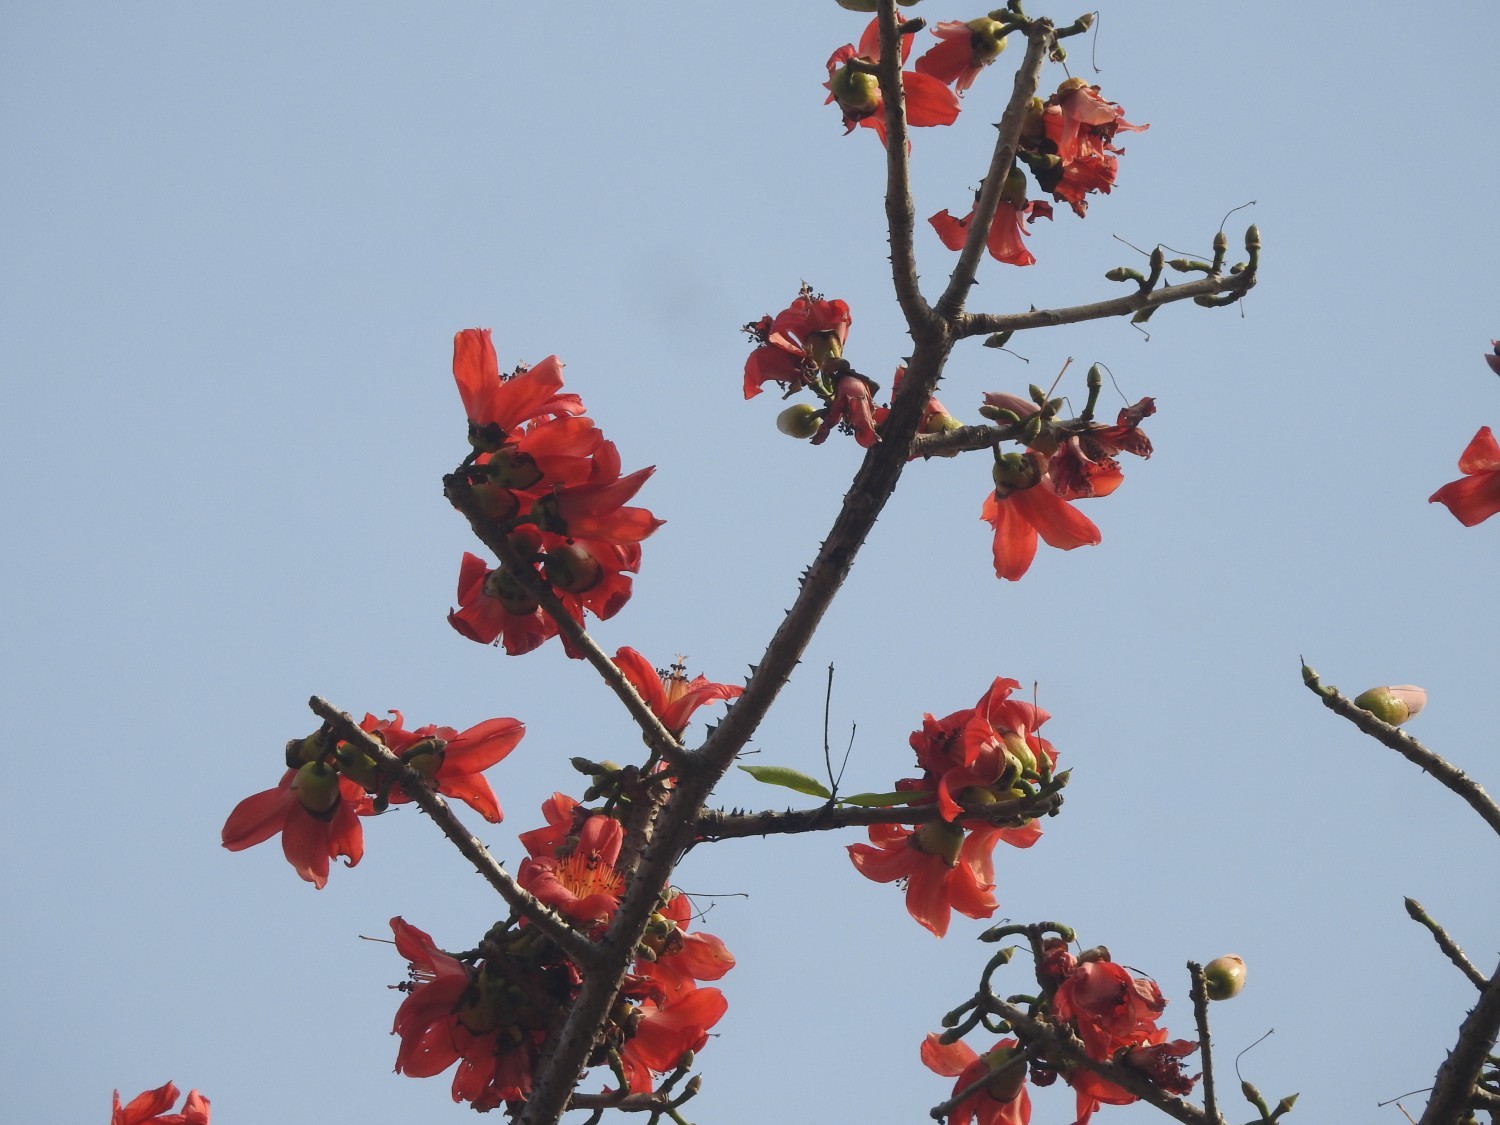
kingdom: Plantae
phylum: Tracheophyta
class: Magnoliopsida
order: Malvales
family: Malvaceae
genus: Bombax
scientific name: Bombax ceiba
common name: Northern-cottonwood
